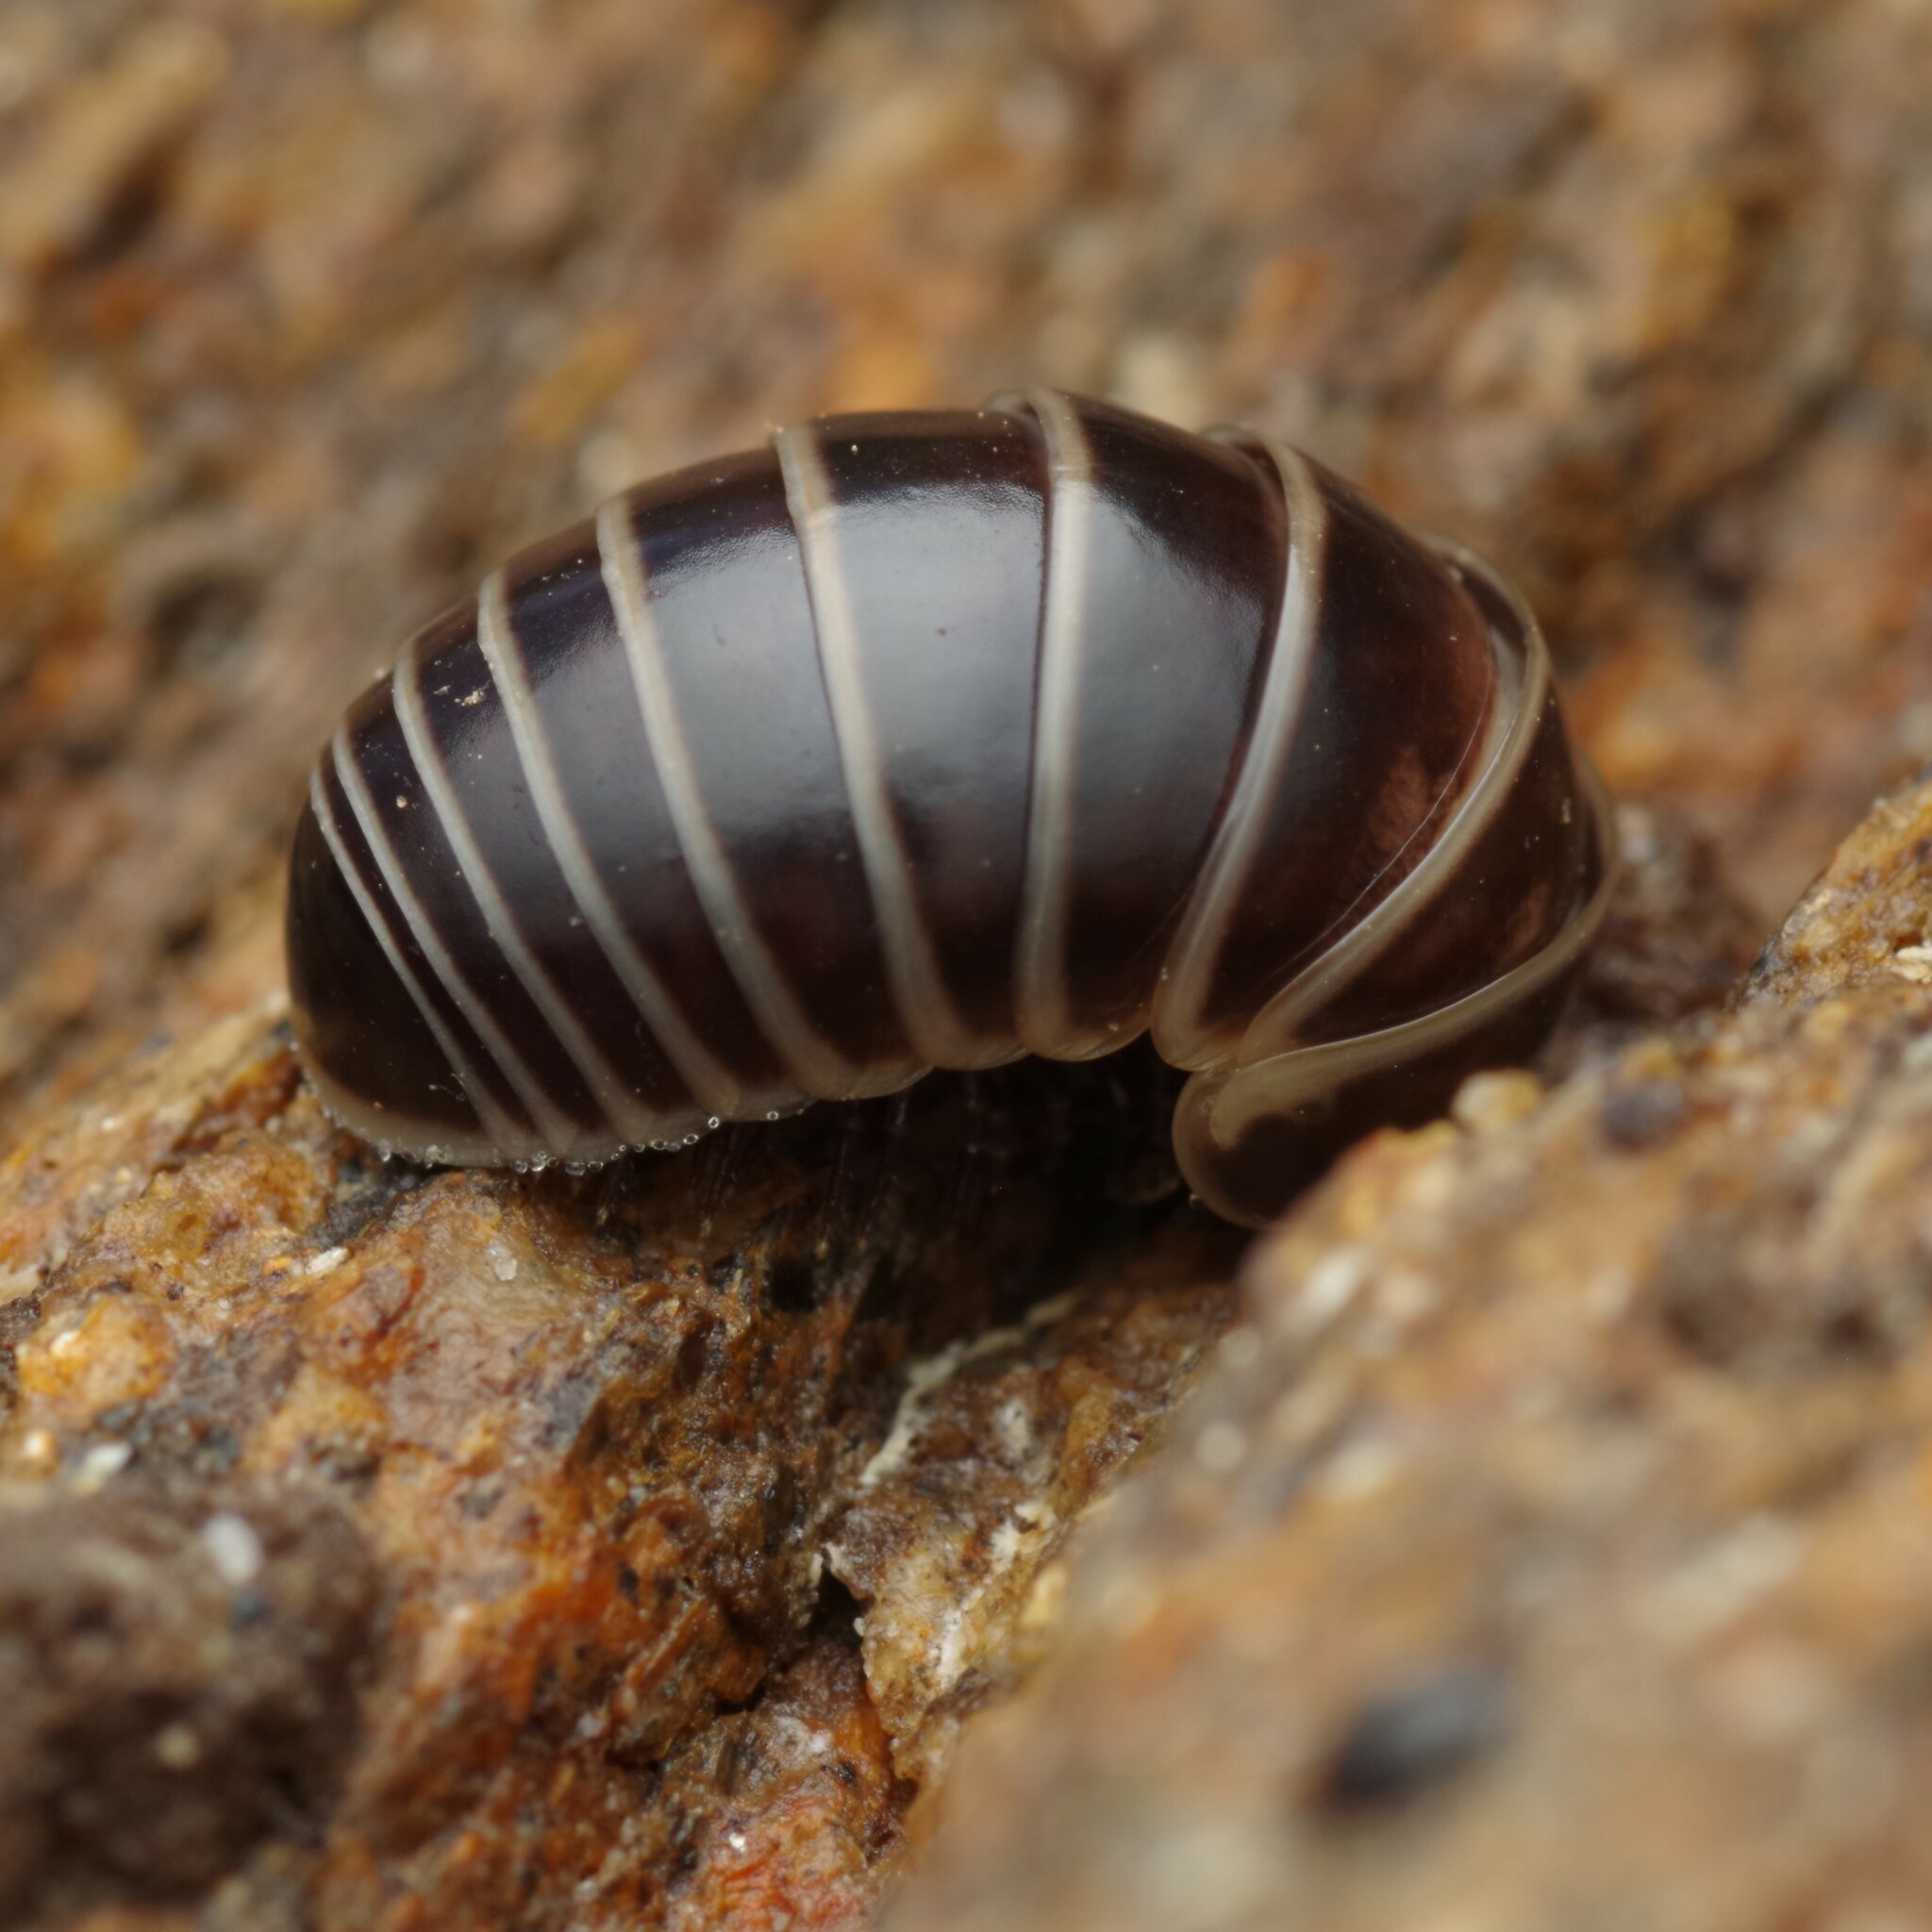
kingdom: Animalia
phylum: Arthropoda
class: Diplopoda
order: Glomerida
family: Glomeridae
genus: Glomeris
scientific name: Glomeris marginata
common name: Bordered pill millipede
